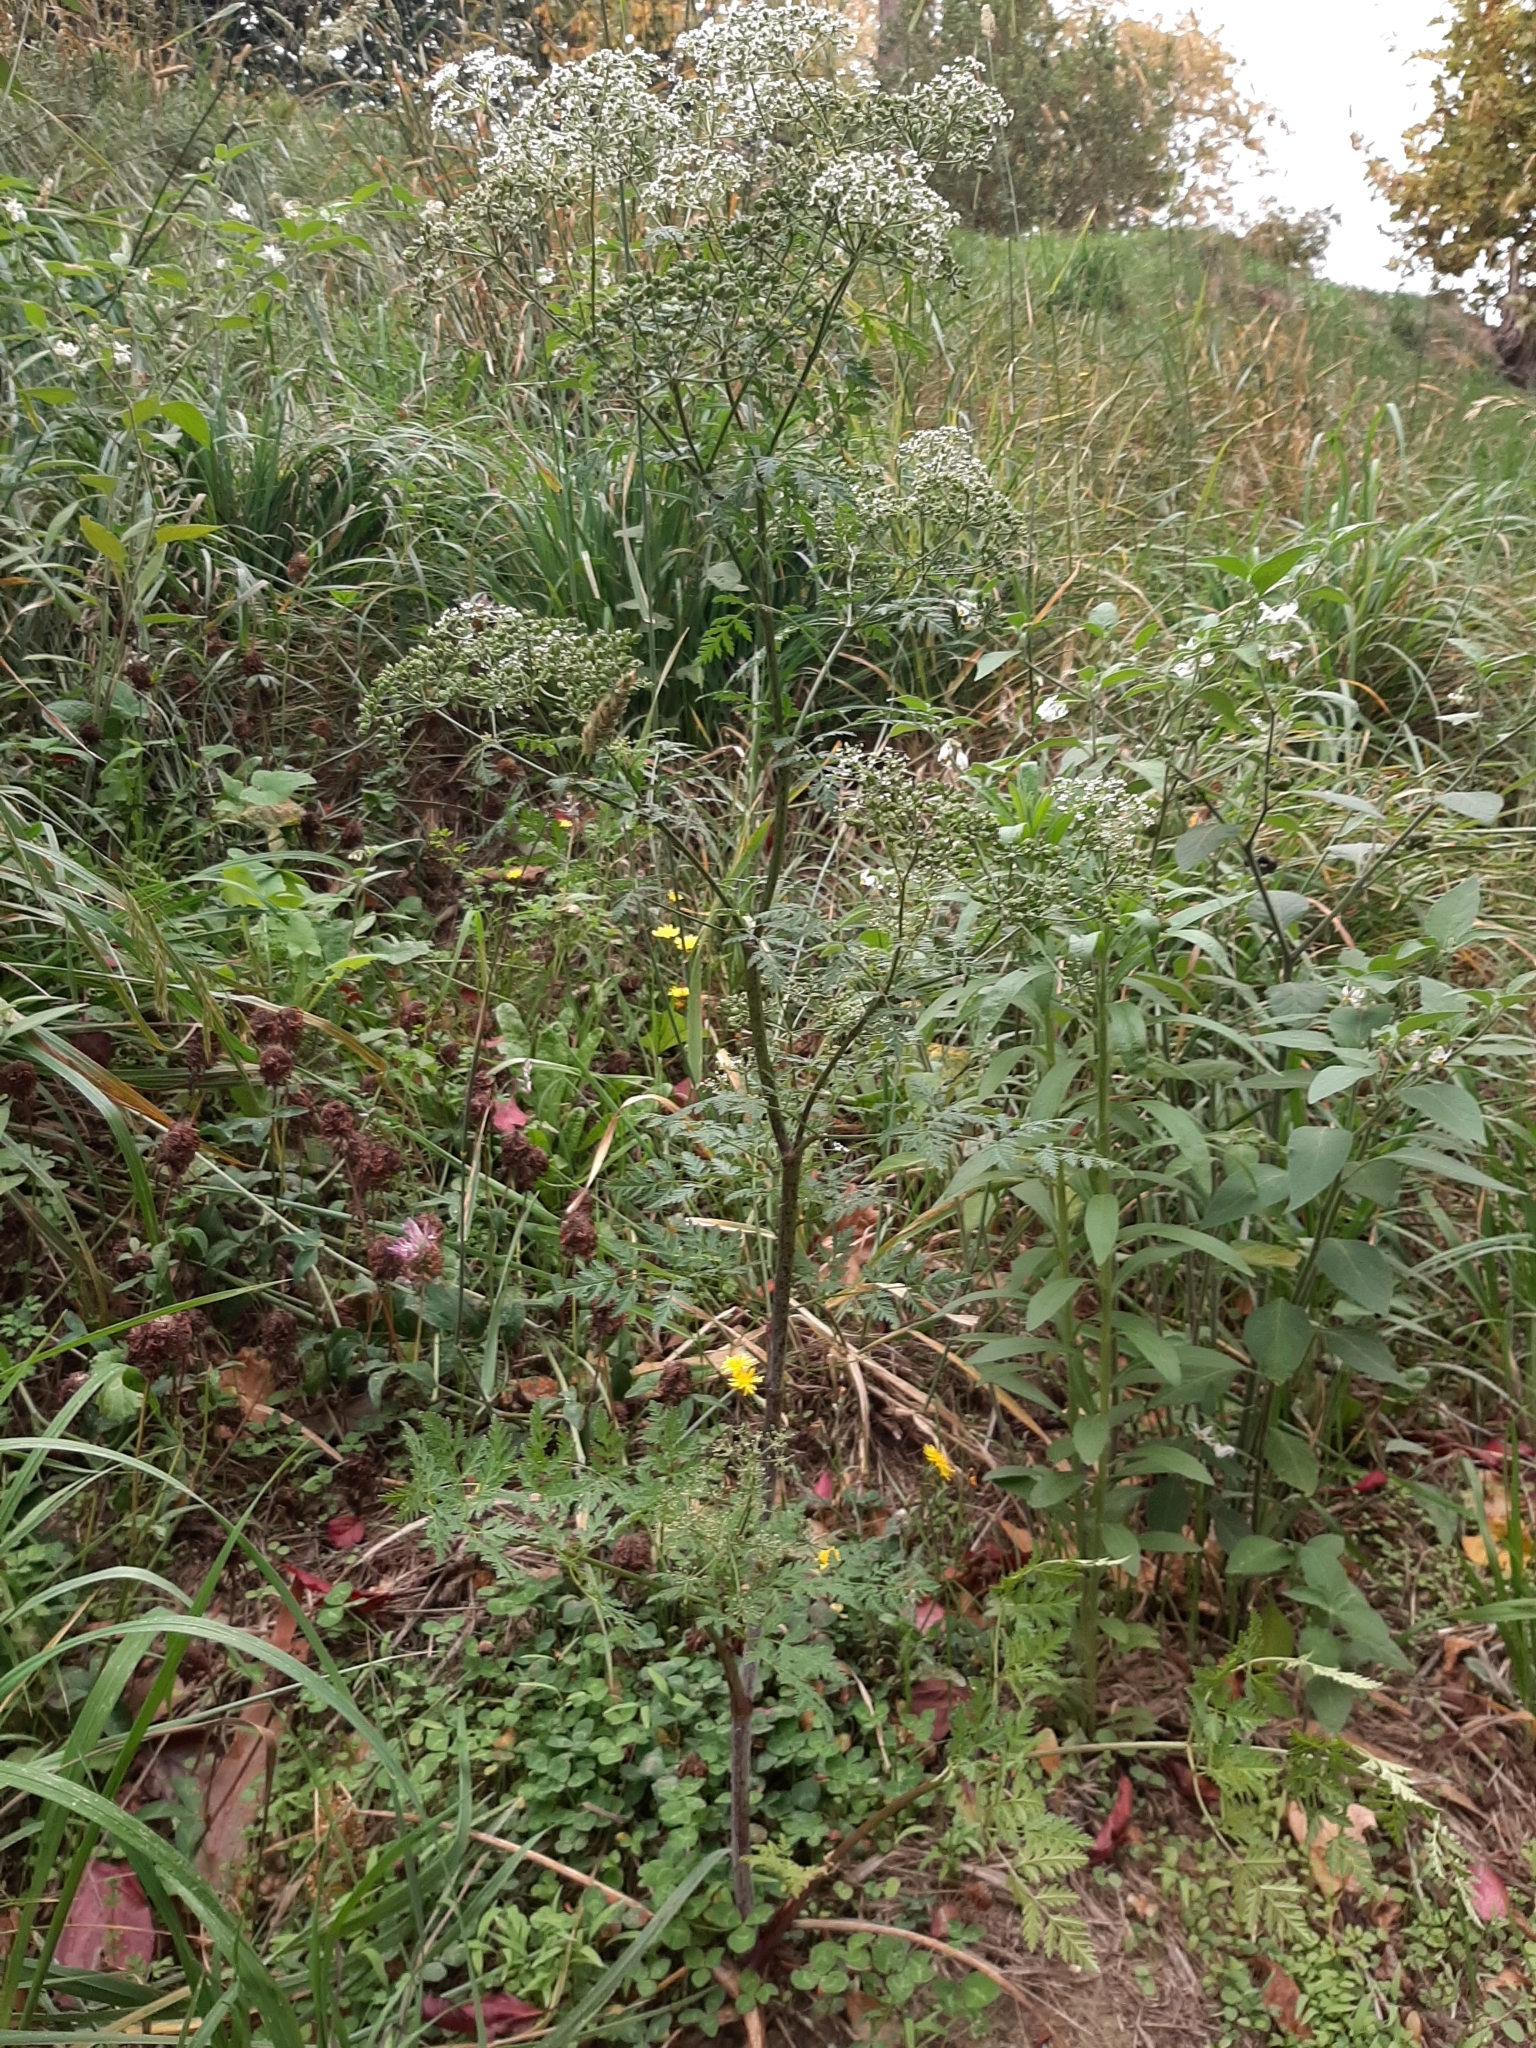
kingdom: Plantae
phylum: Tracheophyta
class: Magnoliopsida
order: Apiales
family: Apiaceae
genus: Conium
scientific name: Conium maculatum
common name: Hemlock
